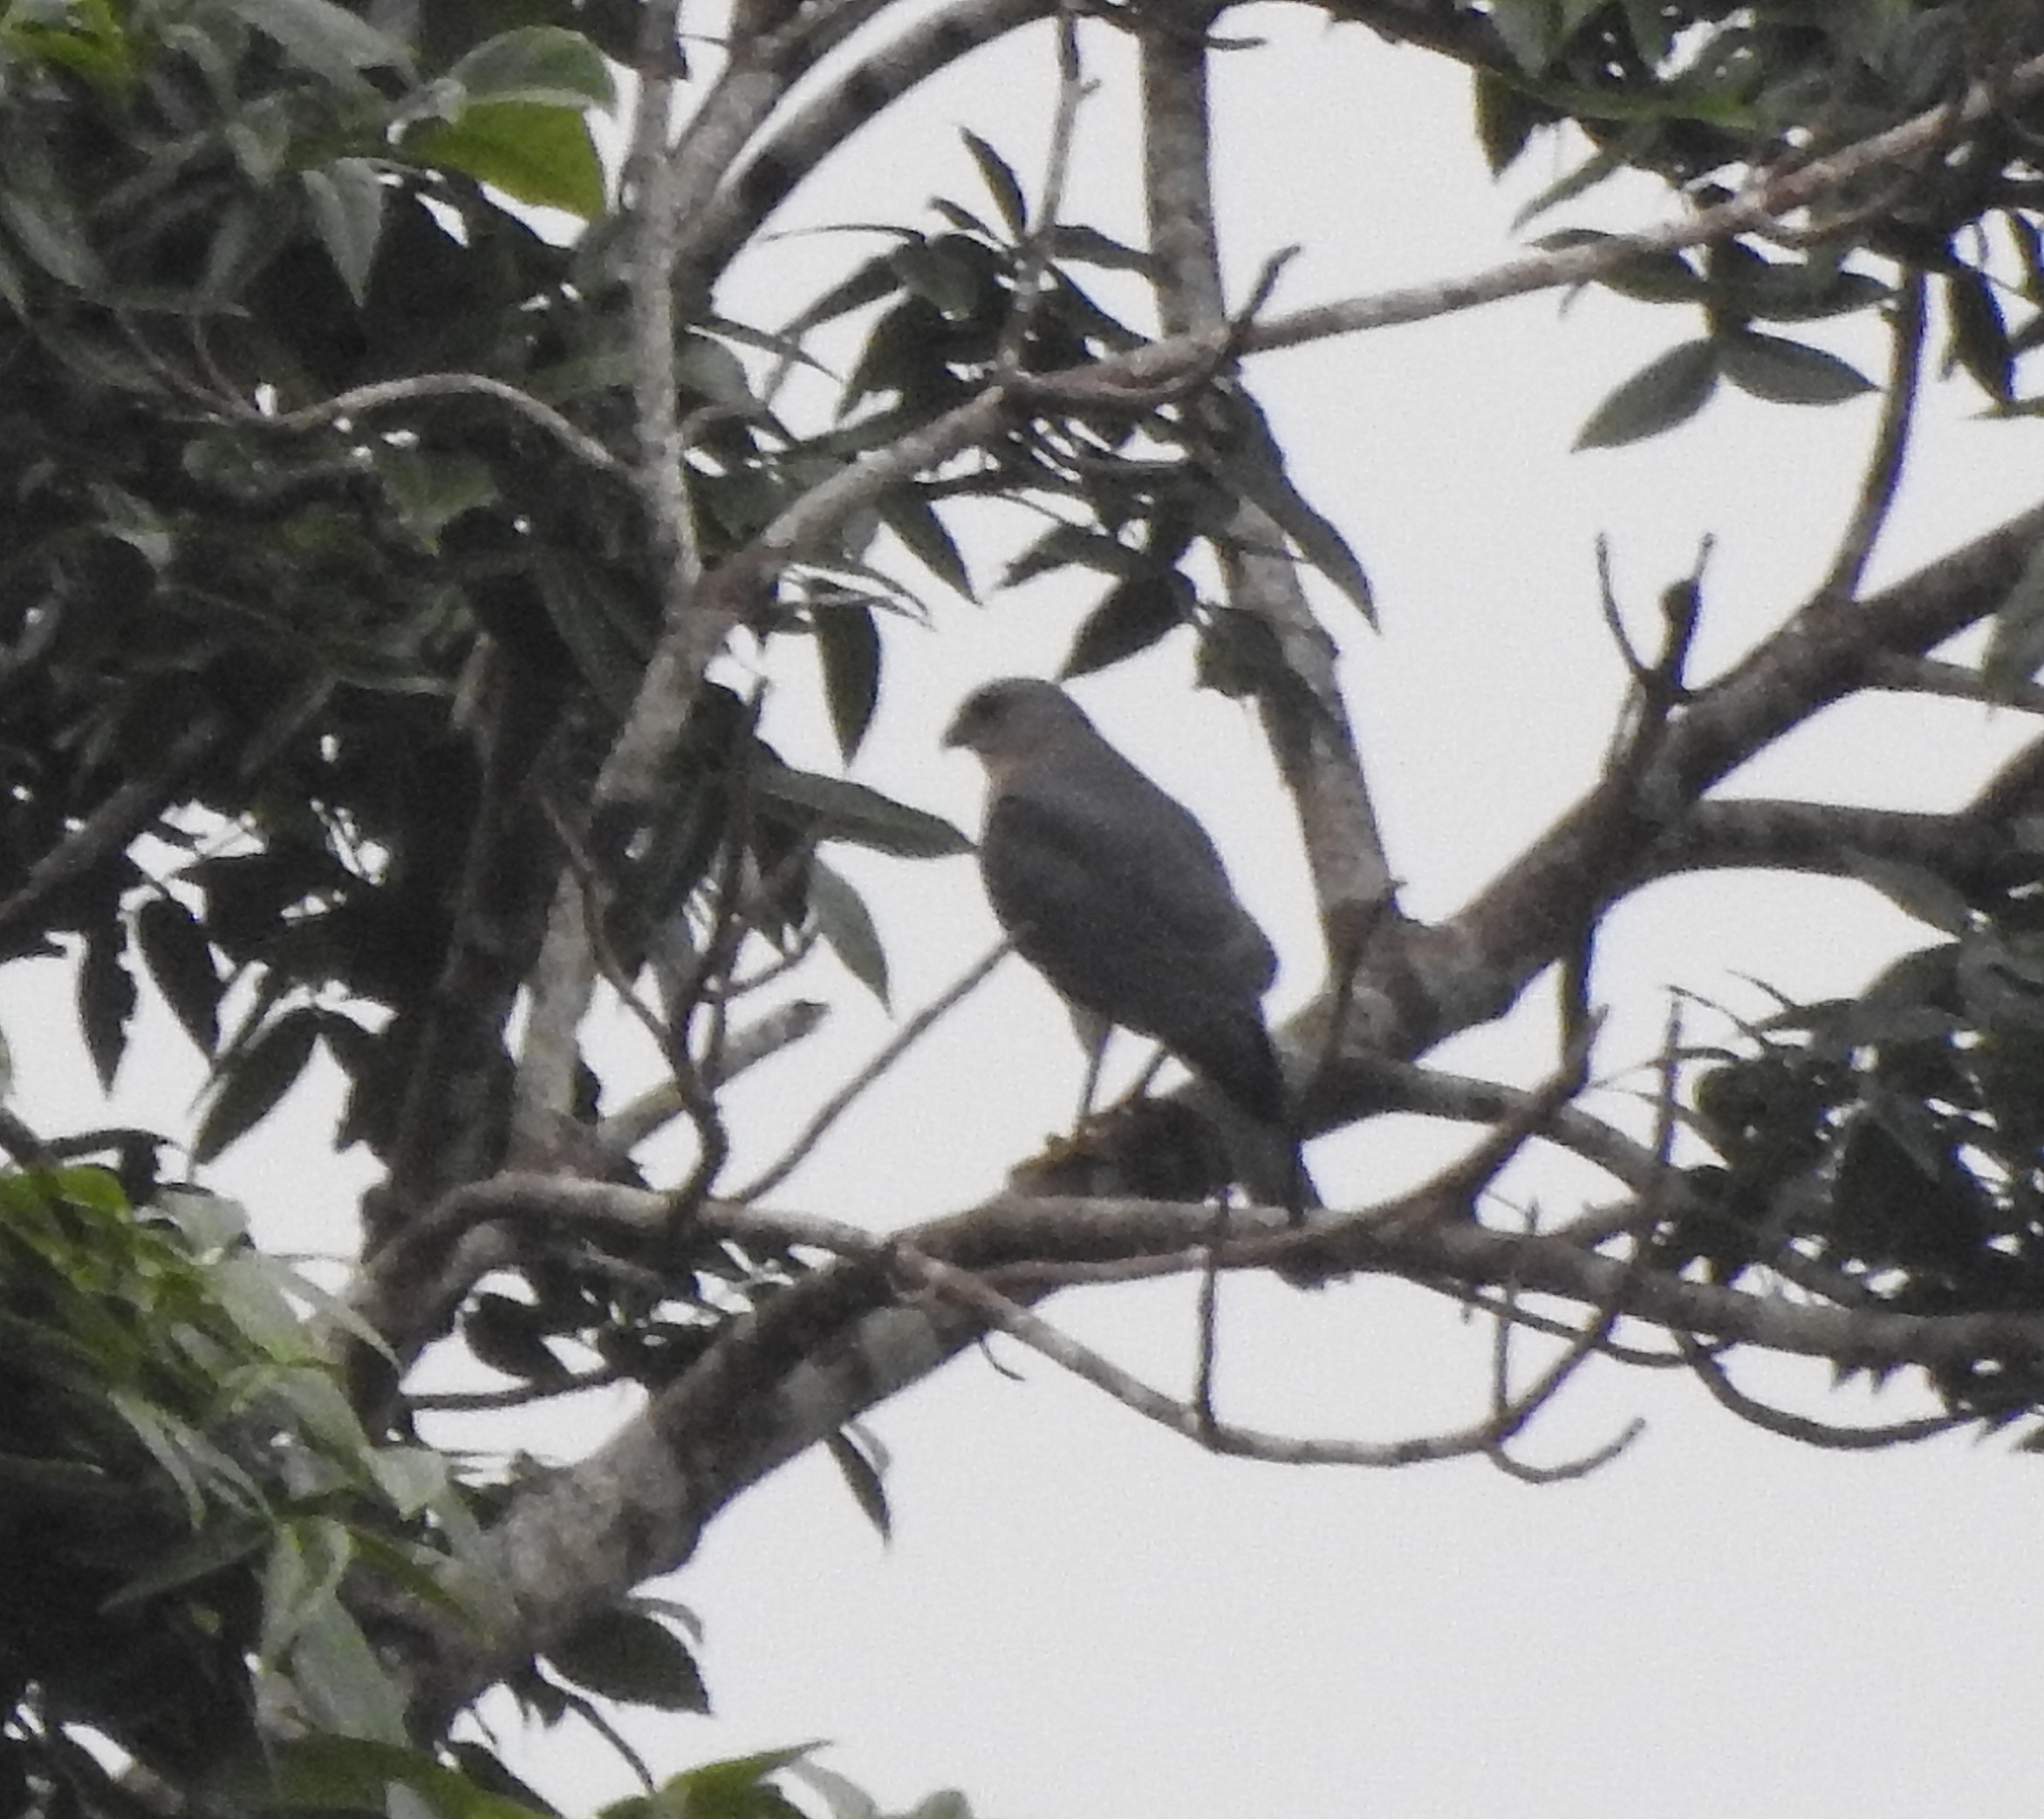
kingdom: Animalia
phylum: Chordata
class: Aves
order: Accipitriformes
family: Accipitridae
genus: Accipiter
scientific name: Accipiter badius
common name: Shikra
